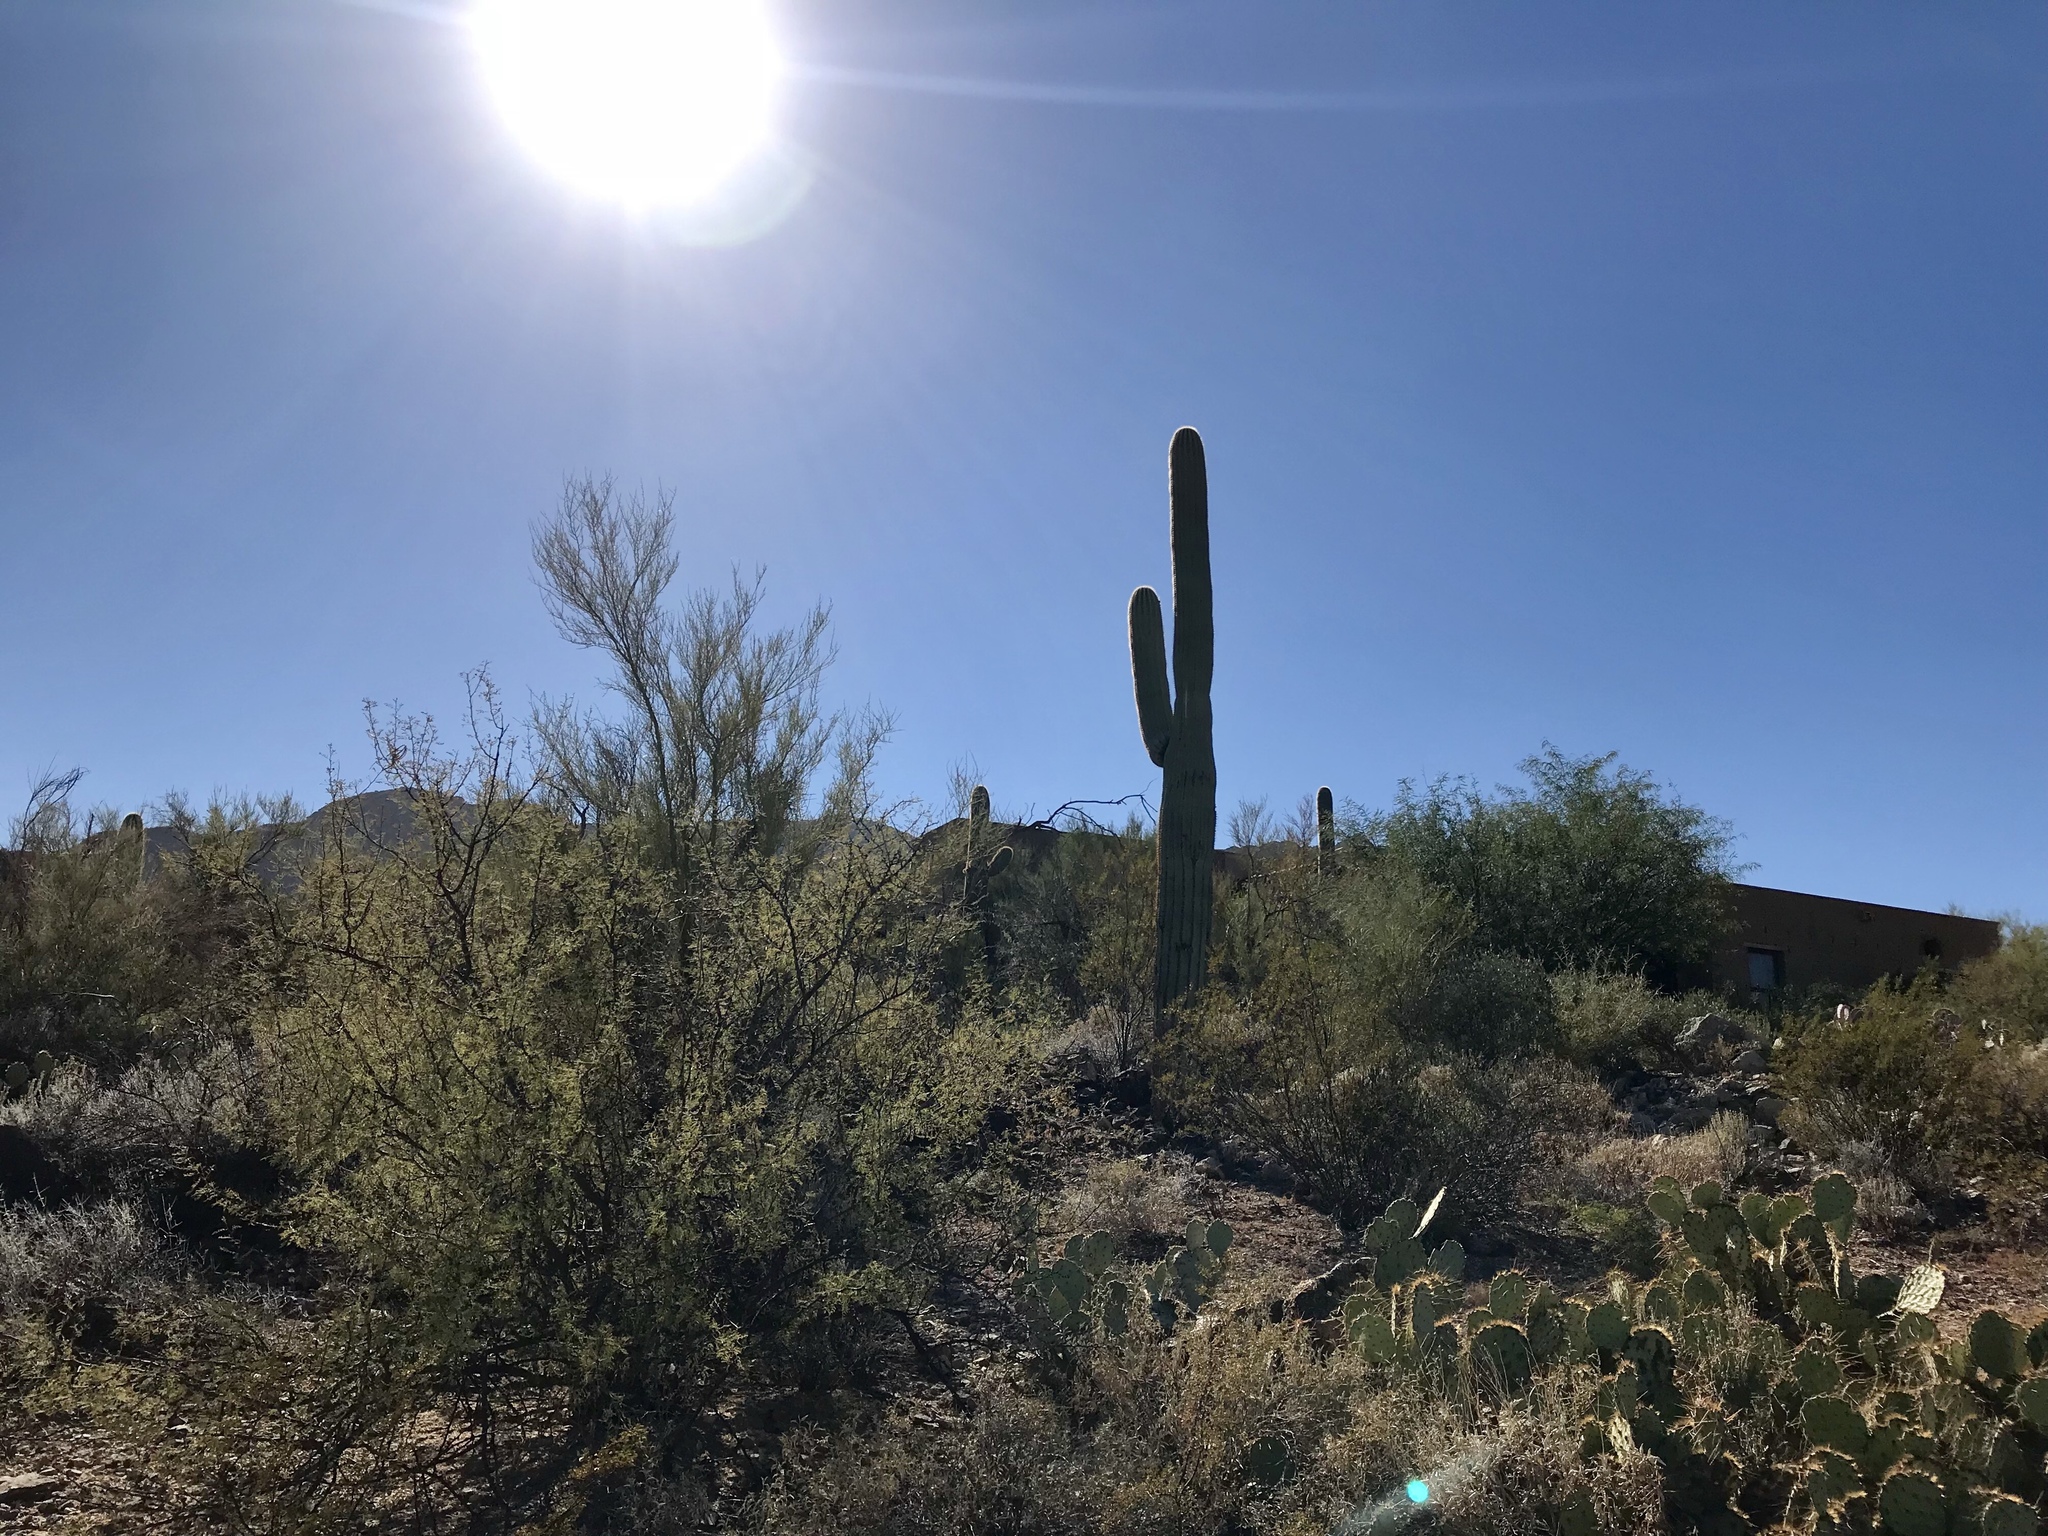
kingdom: Plantae
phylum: Tracheophyta
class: Magnoliopsida
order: Caryophyllales
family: Cactaceae
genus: Carnegiea
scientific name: Carnegiea gigantea
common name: Saguaro
